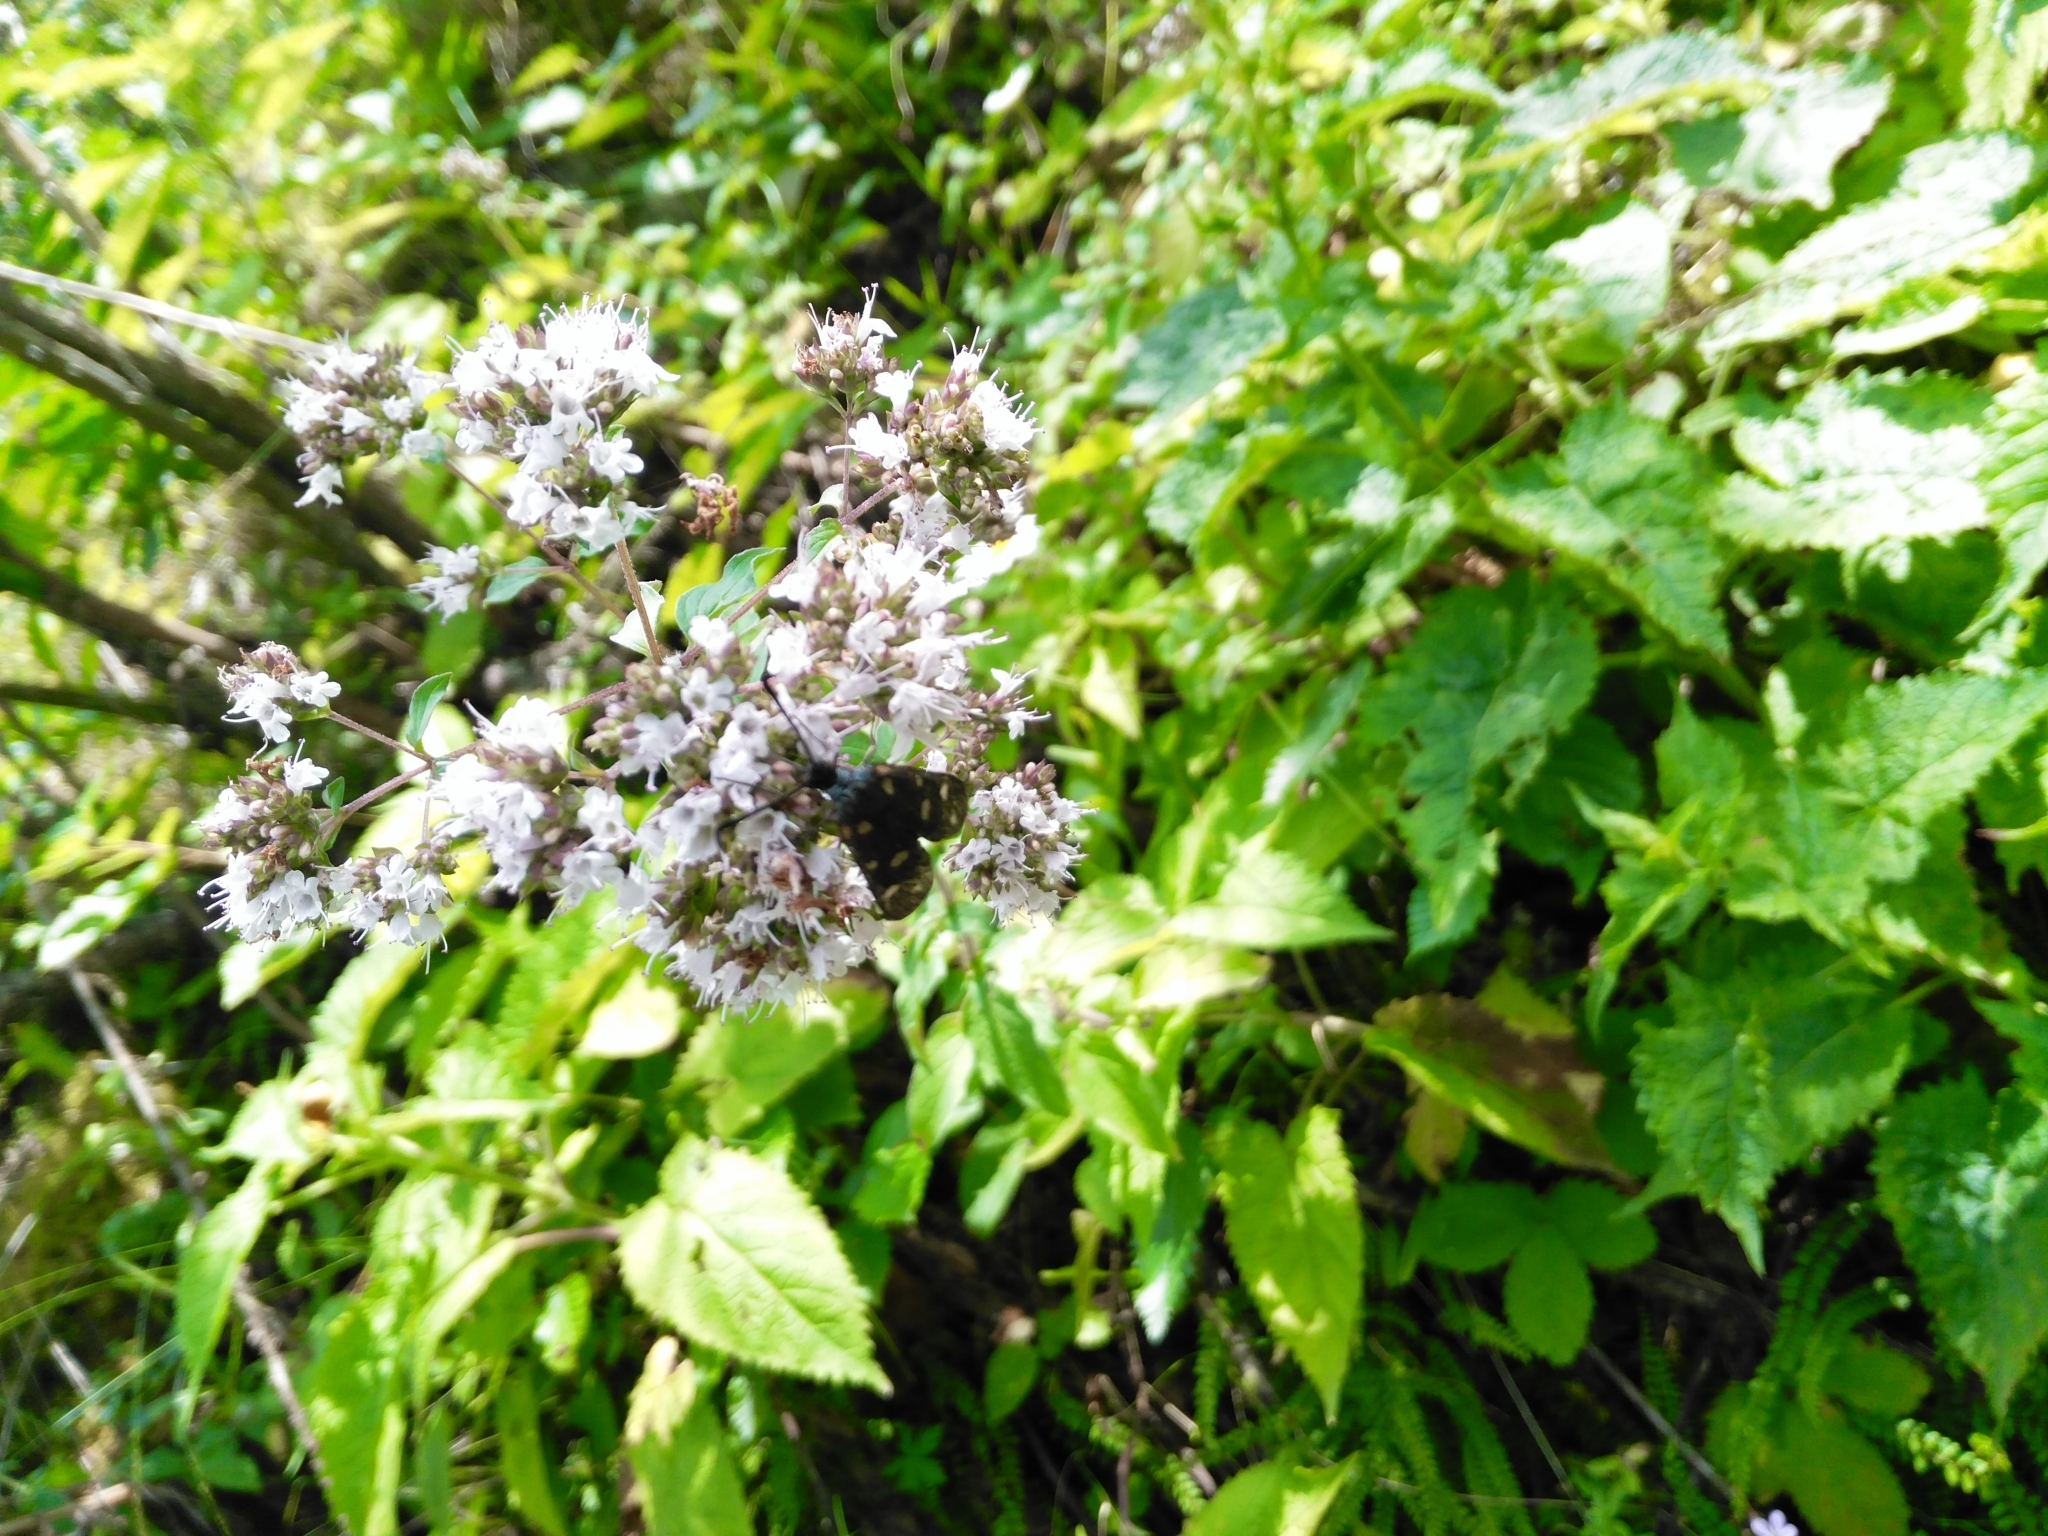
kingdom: Plantae
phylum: Tracheophyta
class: Magnoliopsida
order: Lamiales
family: Lamiaceae
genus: Origanum
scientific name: Origanum vulgare
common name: Wild marjoram
